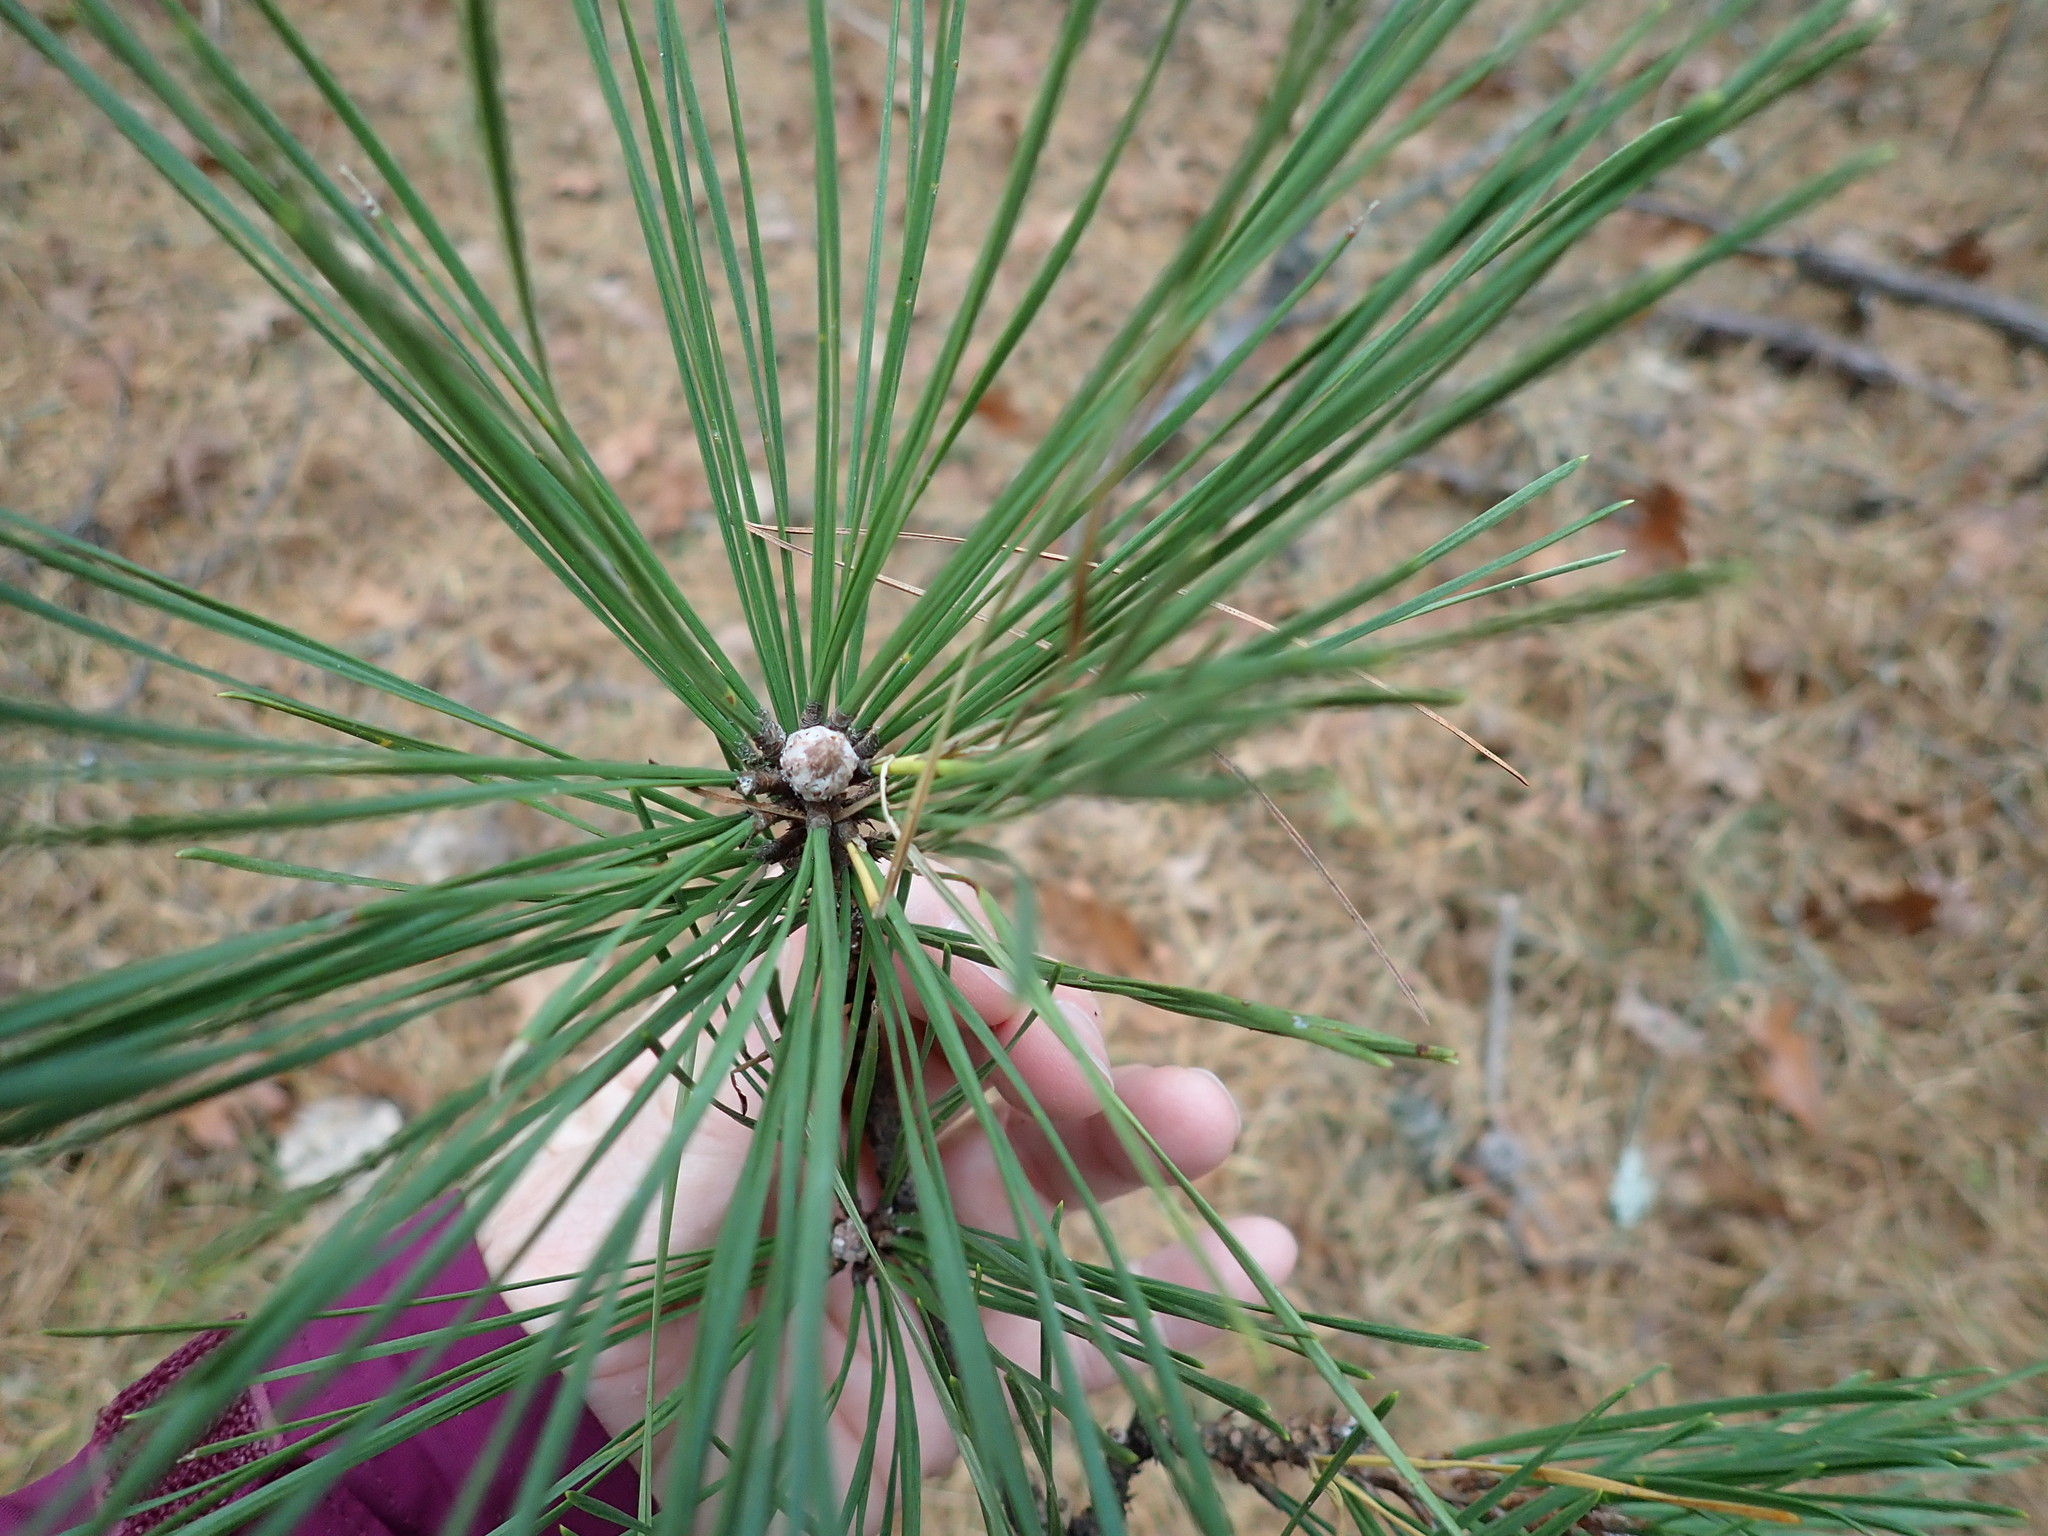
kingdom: Plantae
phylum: Tracheophyta
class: Pinopsida
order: Pinales
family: Pinaceae
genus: Pinus
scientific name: Pinus rigida
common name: Pitch pine
